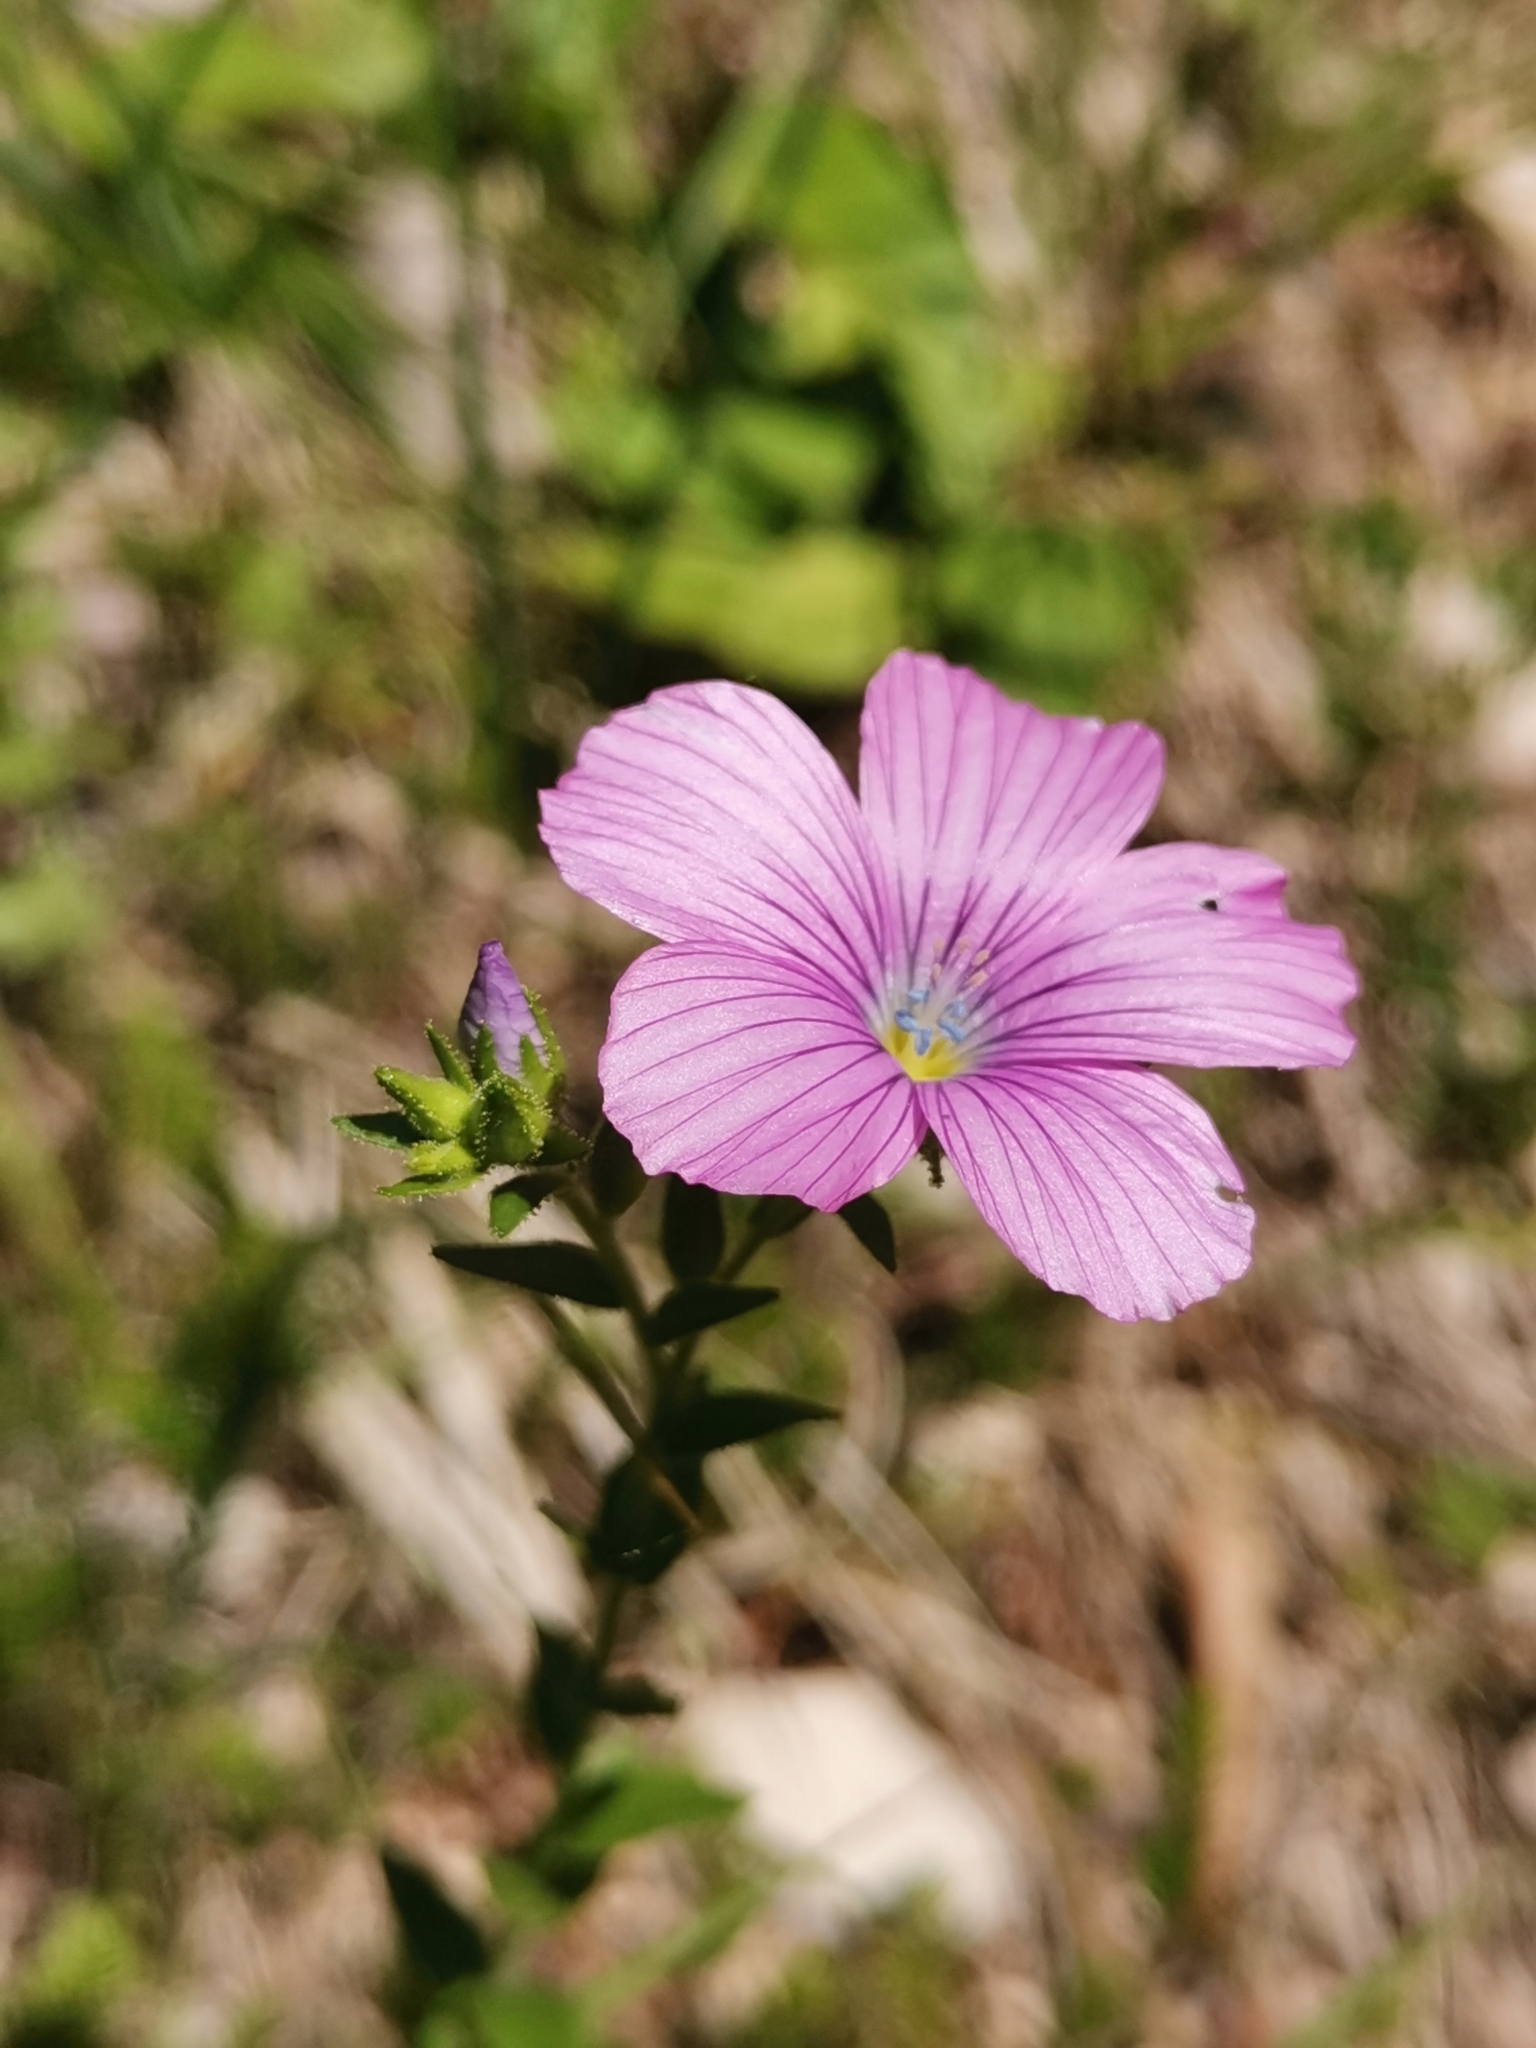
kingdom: Plantae
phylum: Tracheophyta
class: Magnoliopsida
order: Malpighiales
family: Linaceae
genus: Linum
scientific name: Linum viscosum
